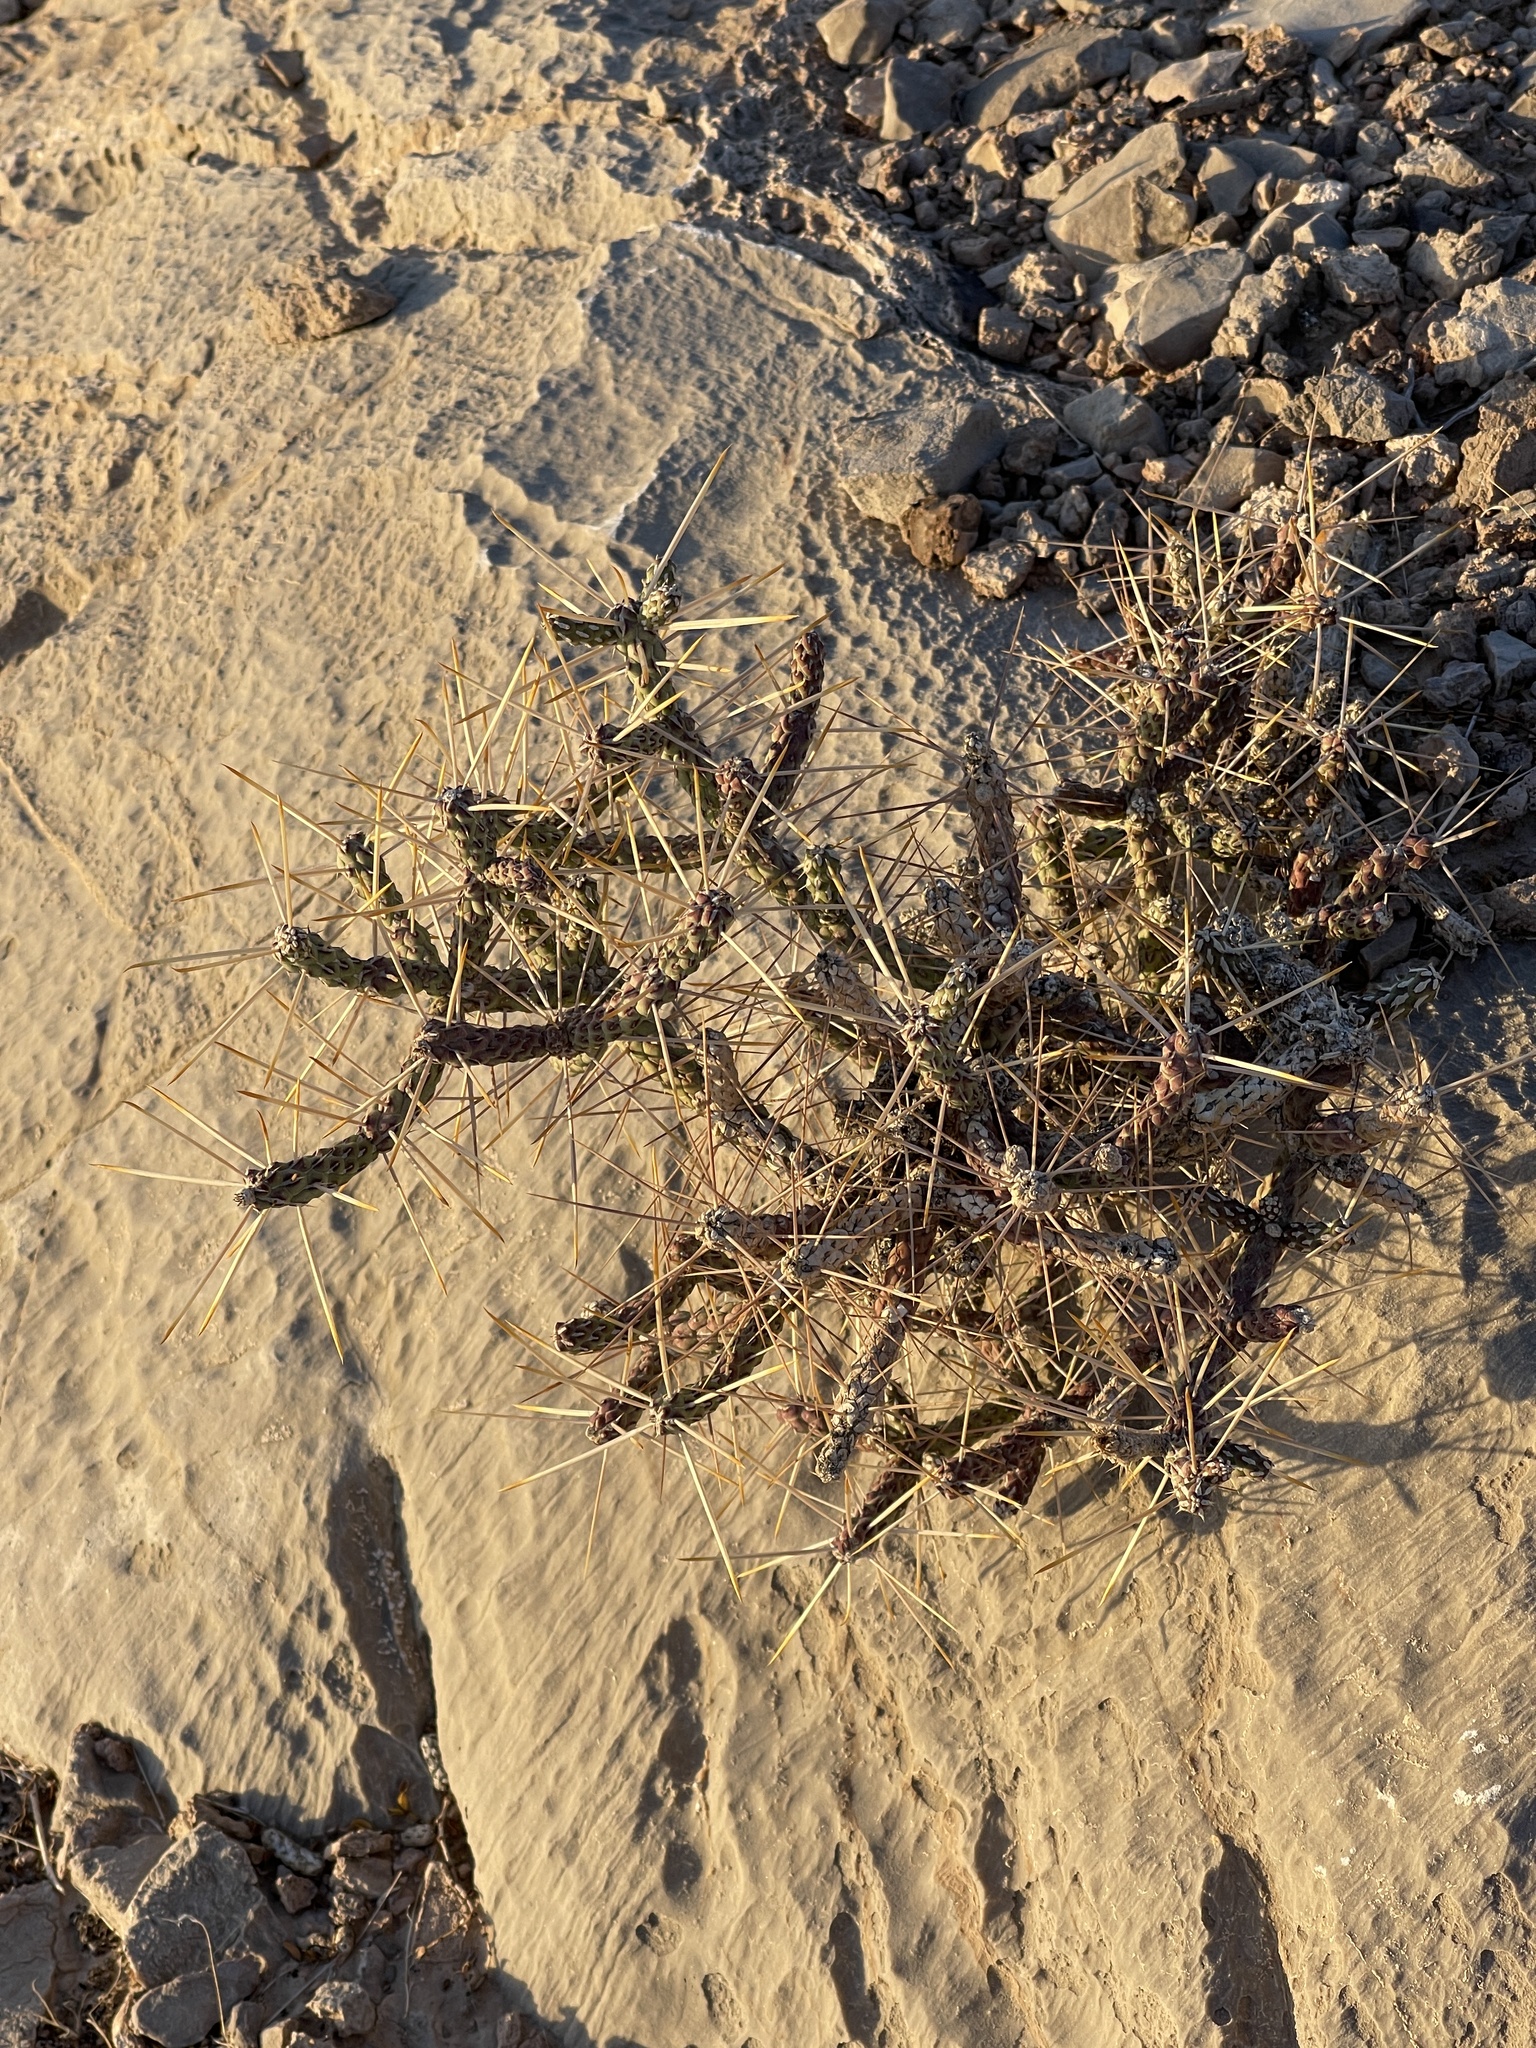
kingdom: Plantae
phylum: Tracheophyta
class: Magnoliopsida
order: Caryophyllales
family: Cactaceae
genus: Cylindropuntia
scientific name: Cylindropuntia ramosissima
